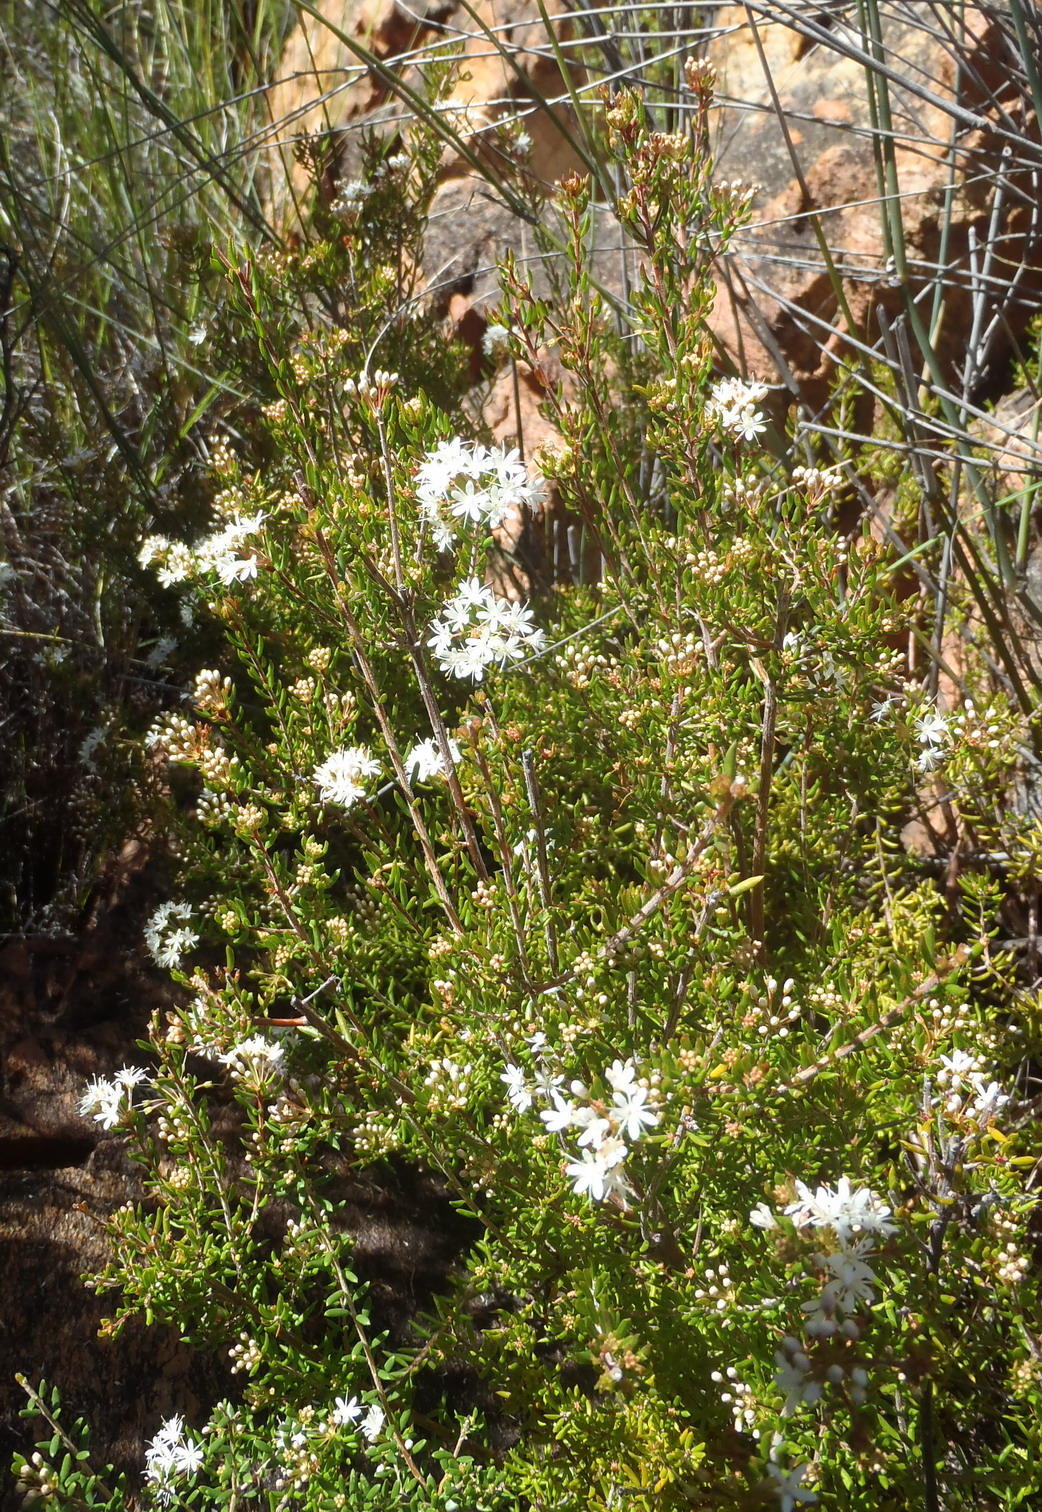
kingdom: Plantae
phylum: Tracheophyta
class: Magnoliopsida
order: Sapindales
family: Rutaceae
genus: Agathosma
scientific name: Agathosma mundtii
